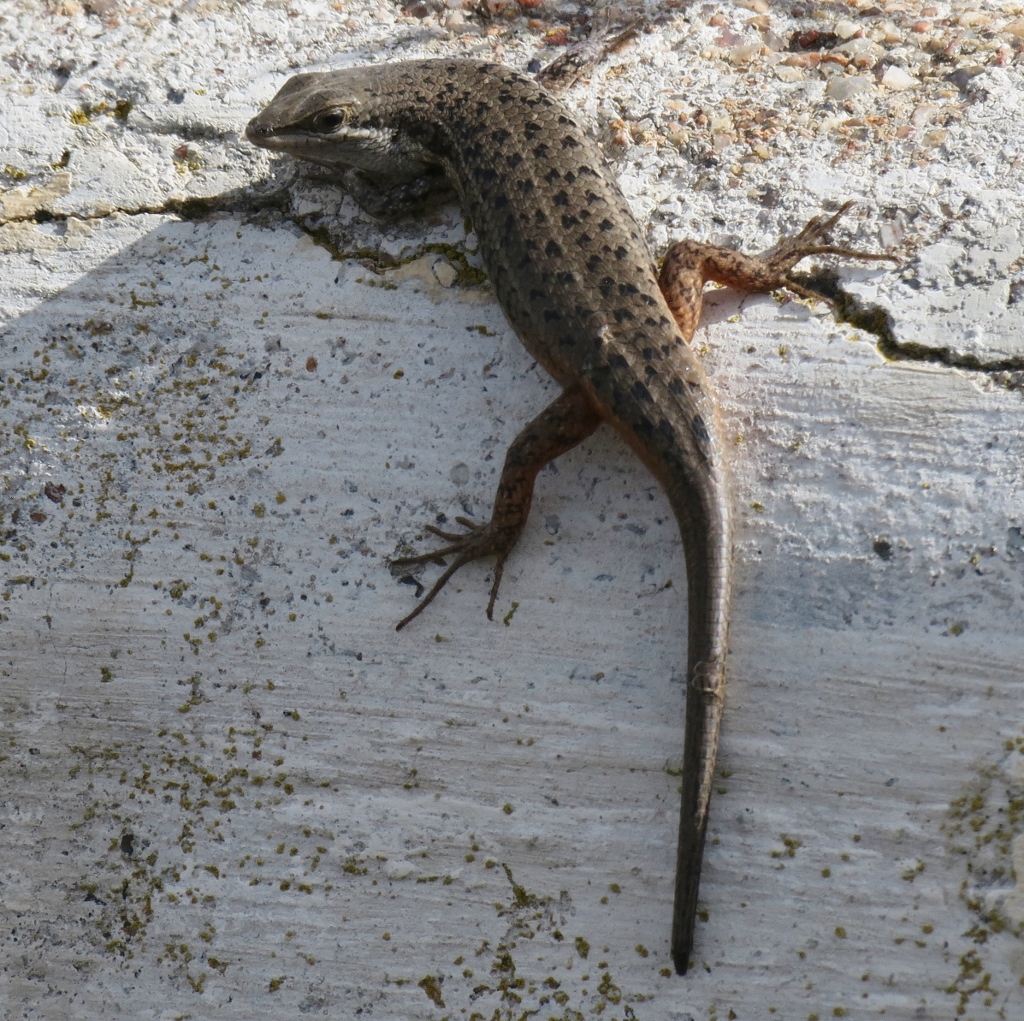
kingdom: Animalia
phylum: Chordata
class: Squamata
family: Scincidae
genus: Trachylepis
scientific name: Trachylepis variegata
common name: Variegated skink
